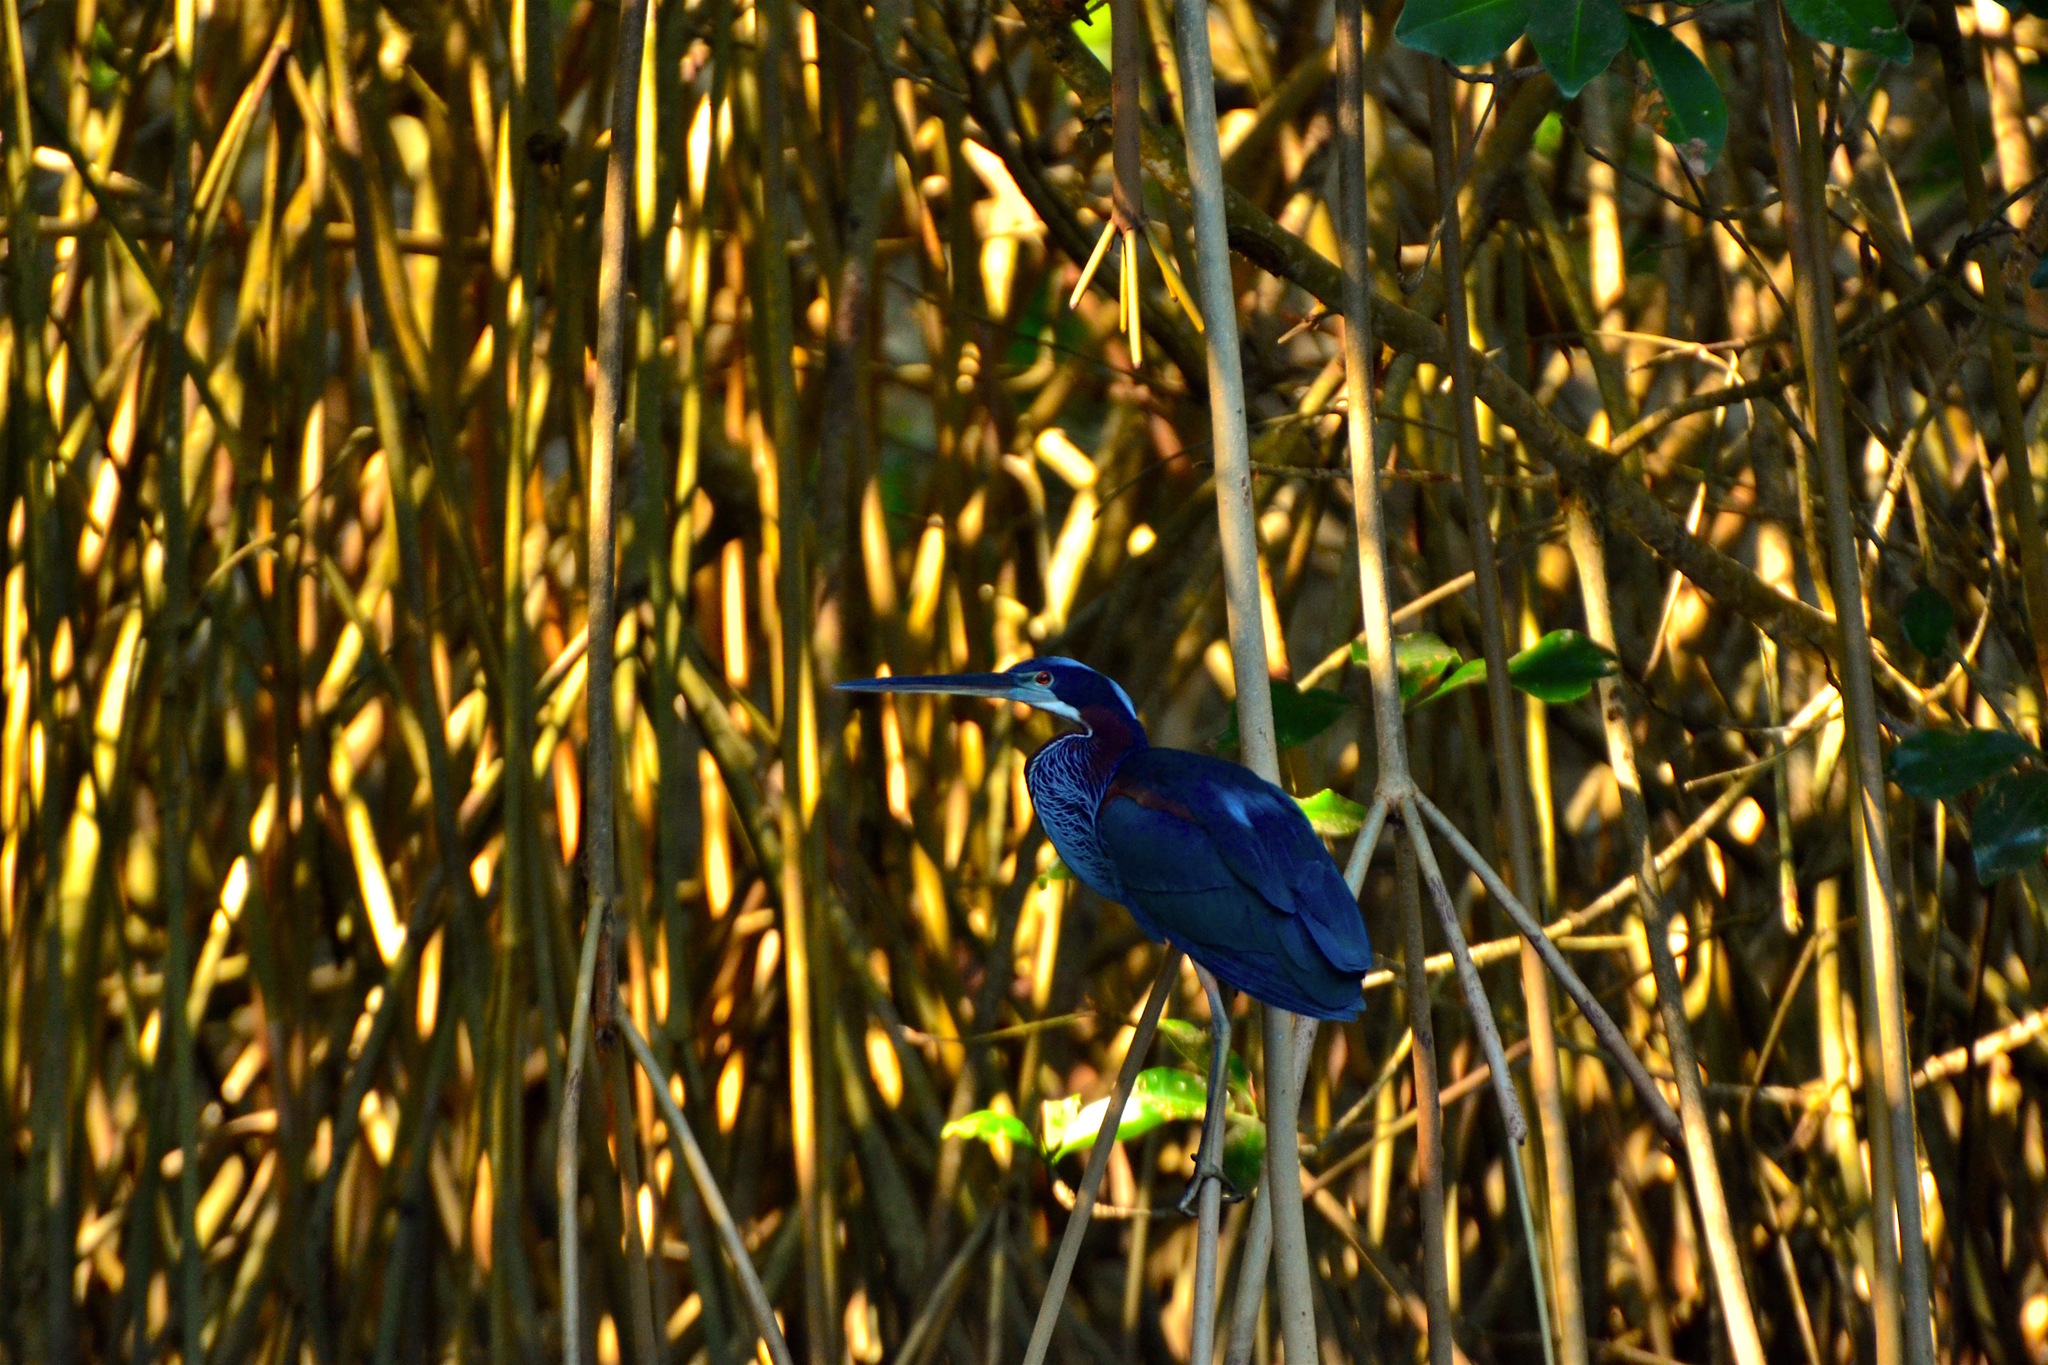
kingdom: Animalia
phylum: Chordata
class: Aves
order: Pelecaniformes
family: Ardeidae
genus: Agamia
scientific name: Agamia agami
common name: Agami heron
